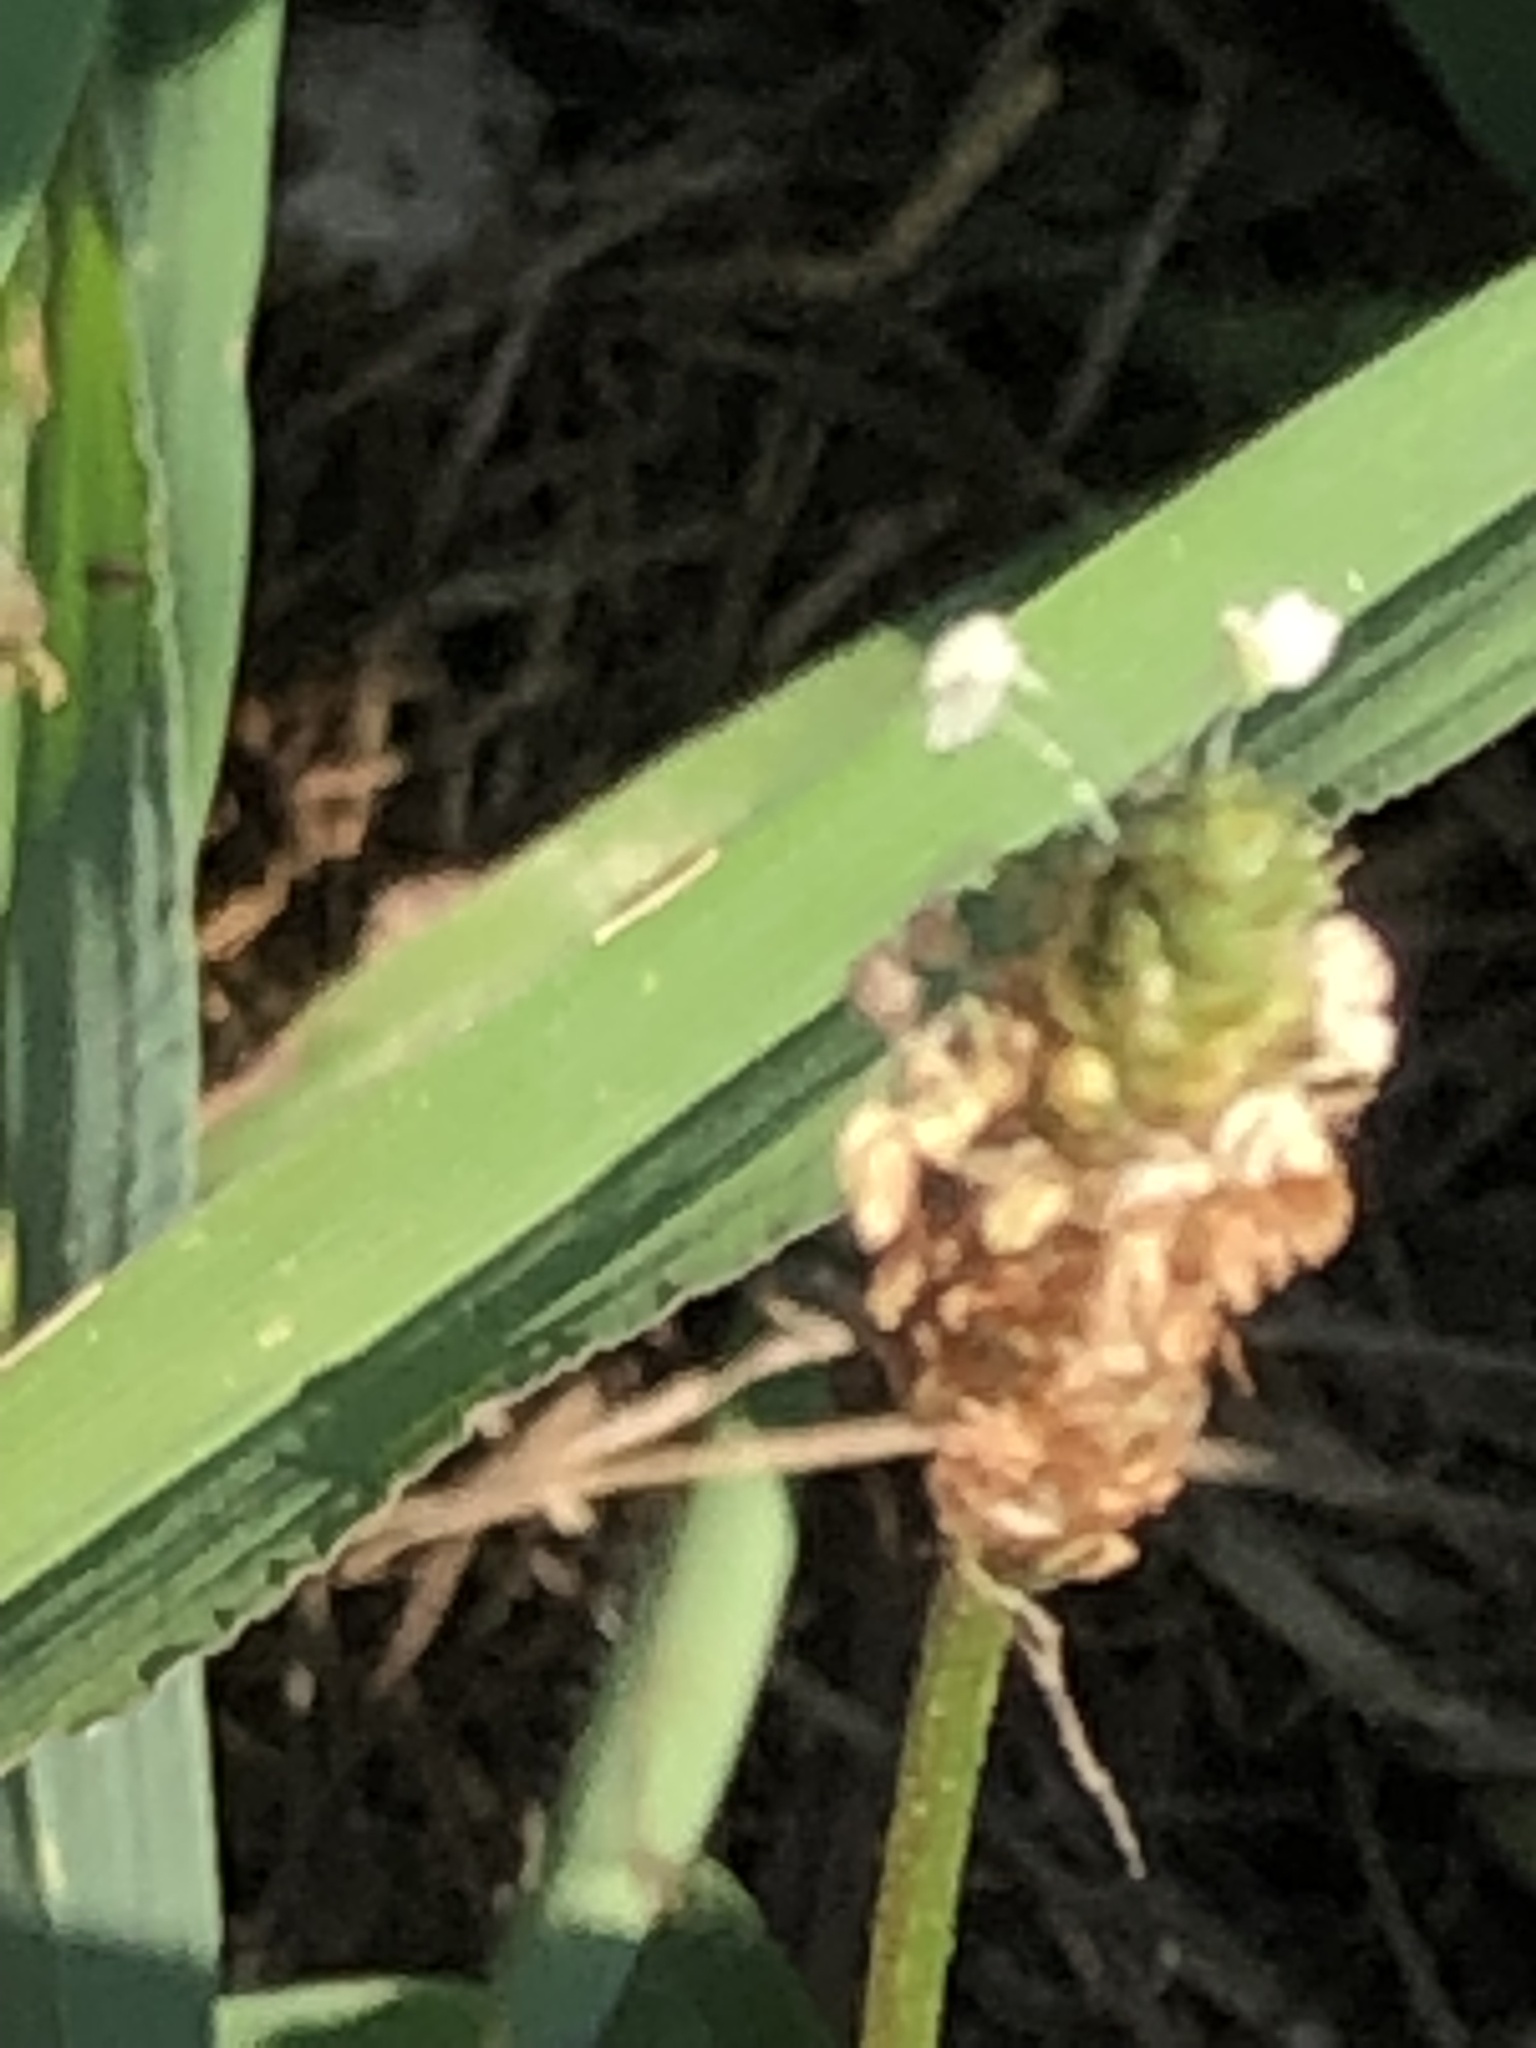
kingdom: Plantae
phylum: Tracheophyta
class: Magnoliopsida
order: Lamiales
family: Plantaginaceae
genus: Plantago
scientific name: Plantago lanceolata
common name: Ribwort plantain
